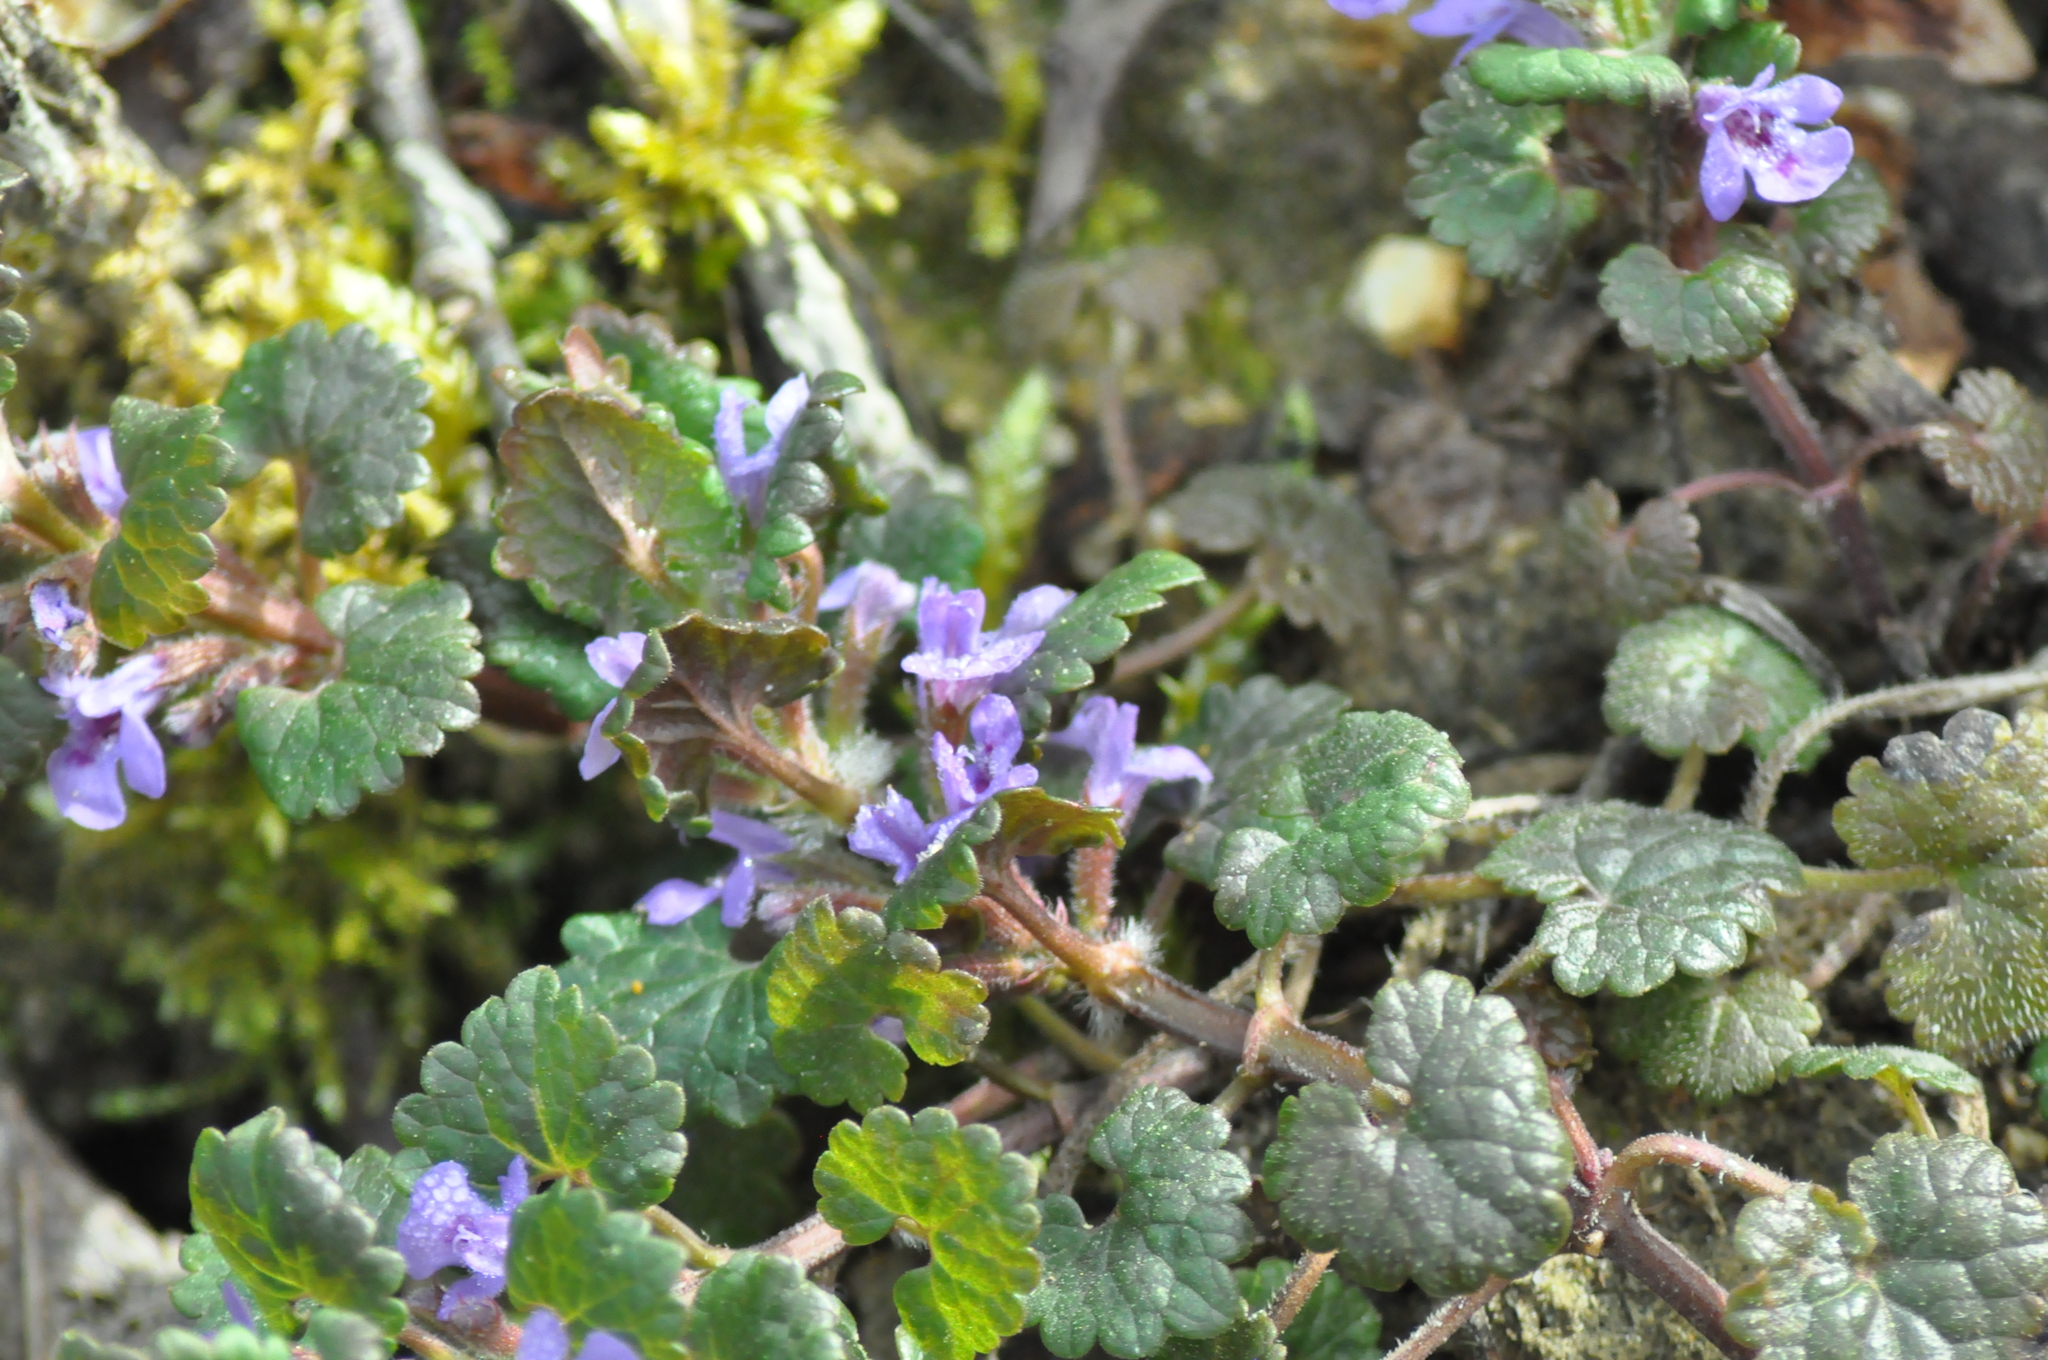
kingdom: Plantae
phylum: Tracheophyta
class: Magnoliopsida
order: Lamiales
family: Lamiaceae
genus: Glechoma
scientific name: Glechoma hederacea
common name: Ground ivy
